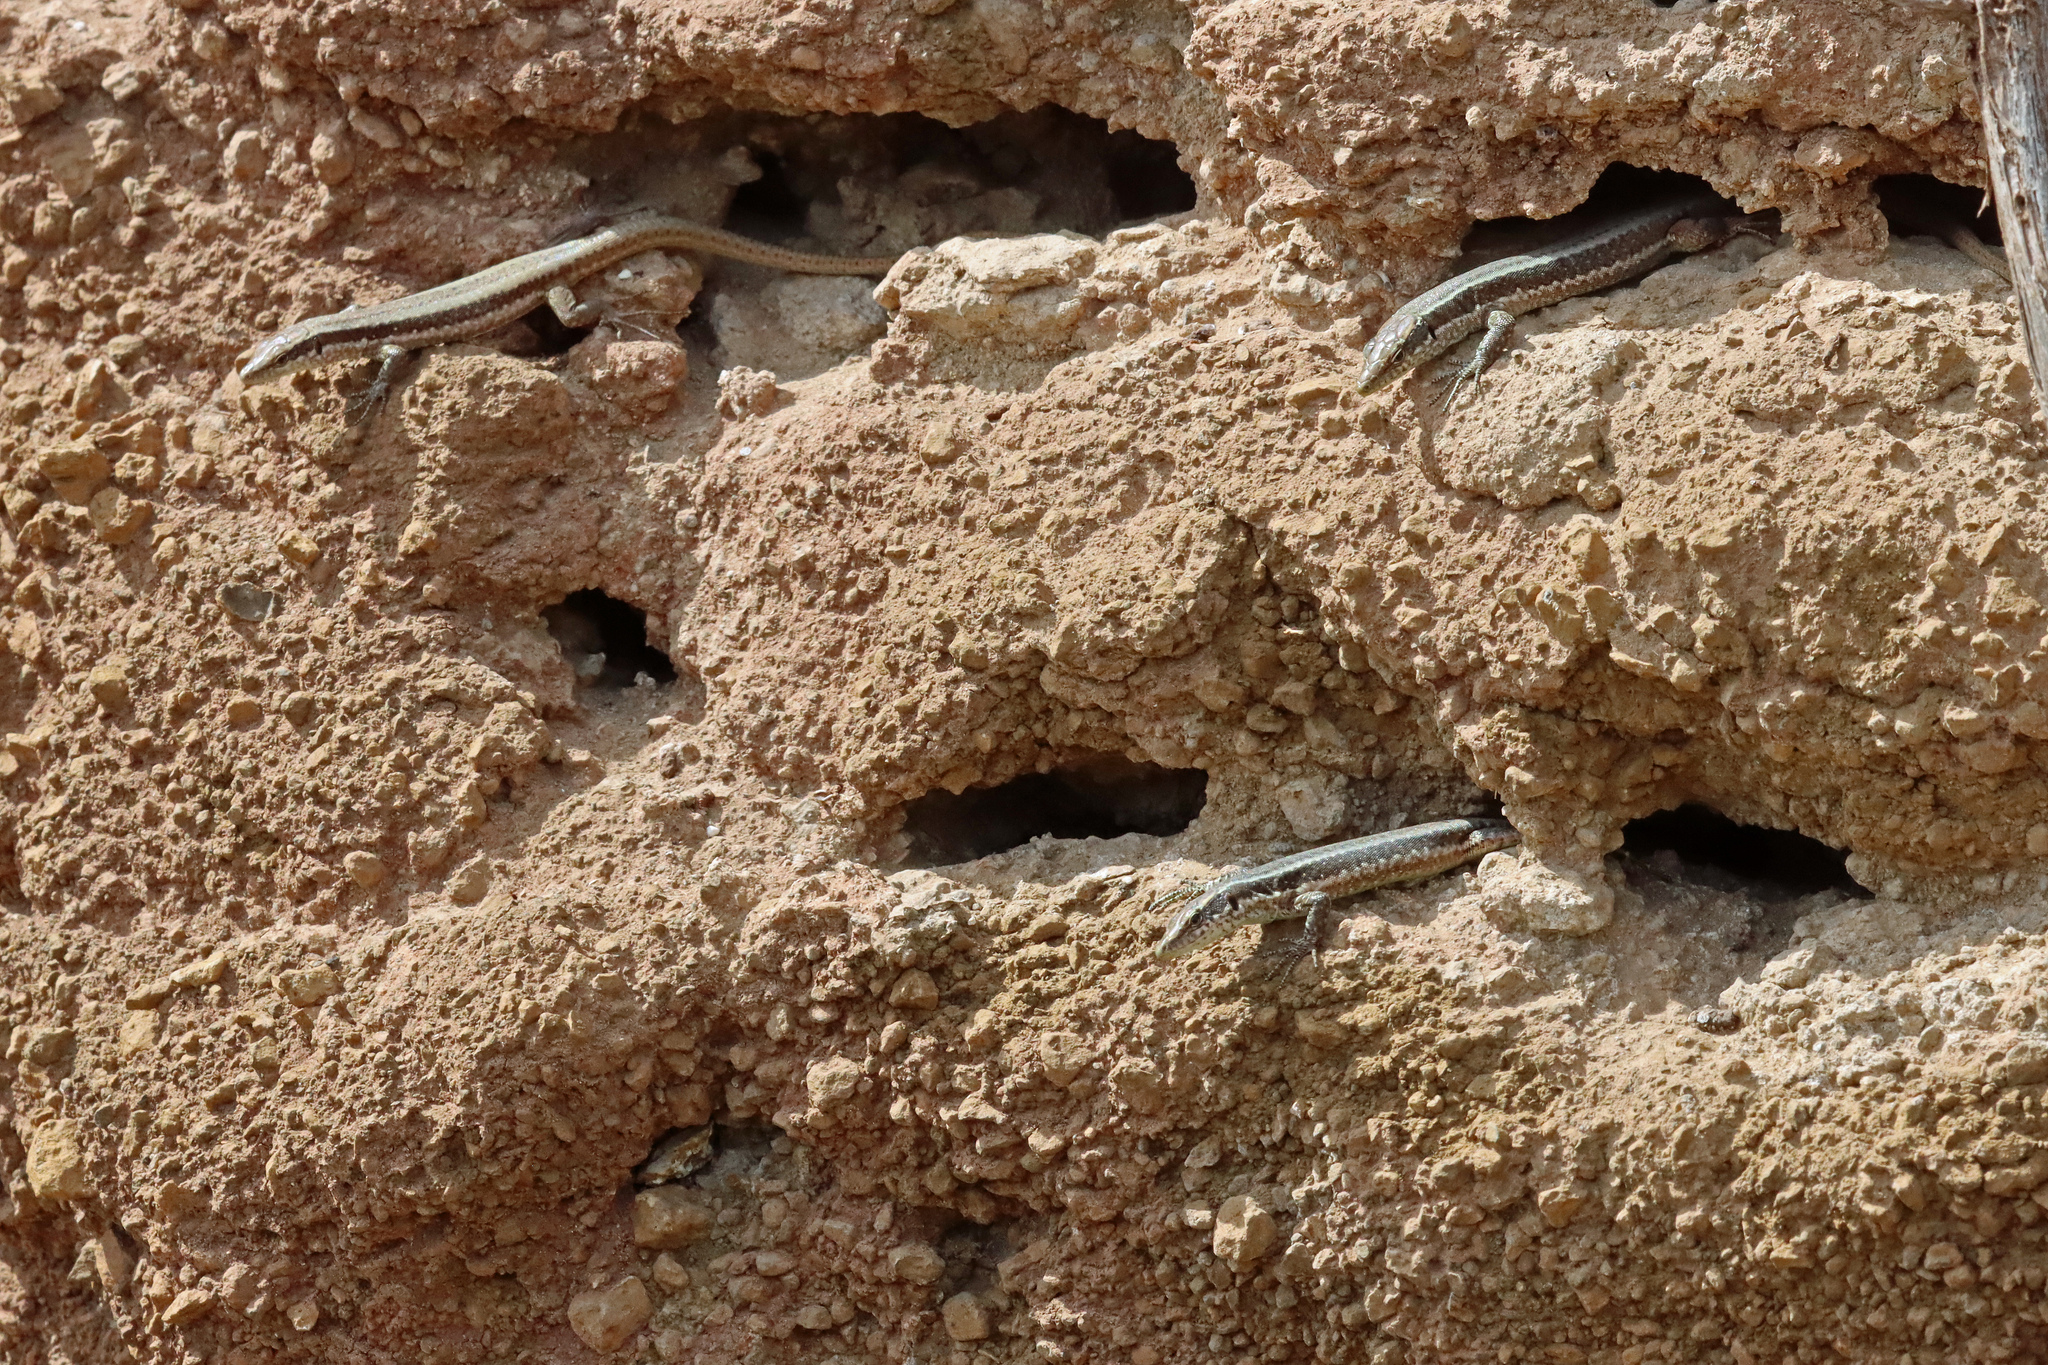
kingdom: Animalia
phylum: Chordata
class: Squamata
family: Lacertidae
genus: Teira
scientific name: Teira dugesii
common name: Madeira lizard
